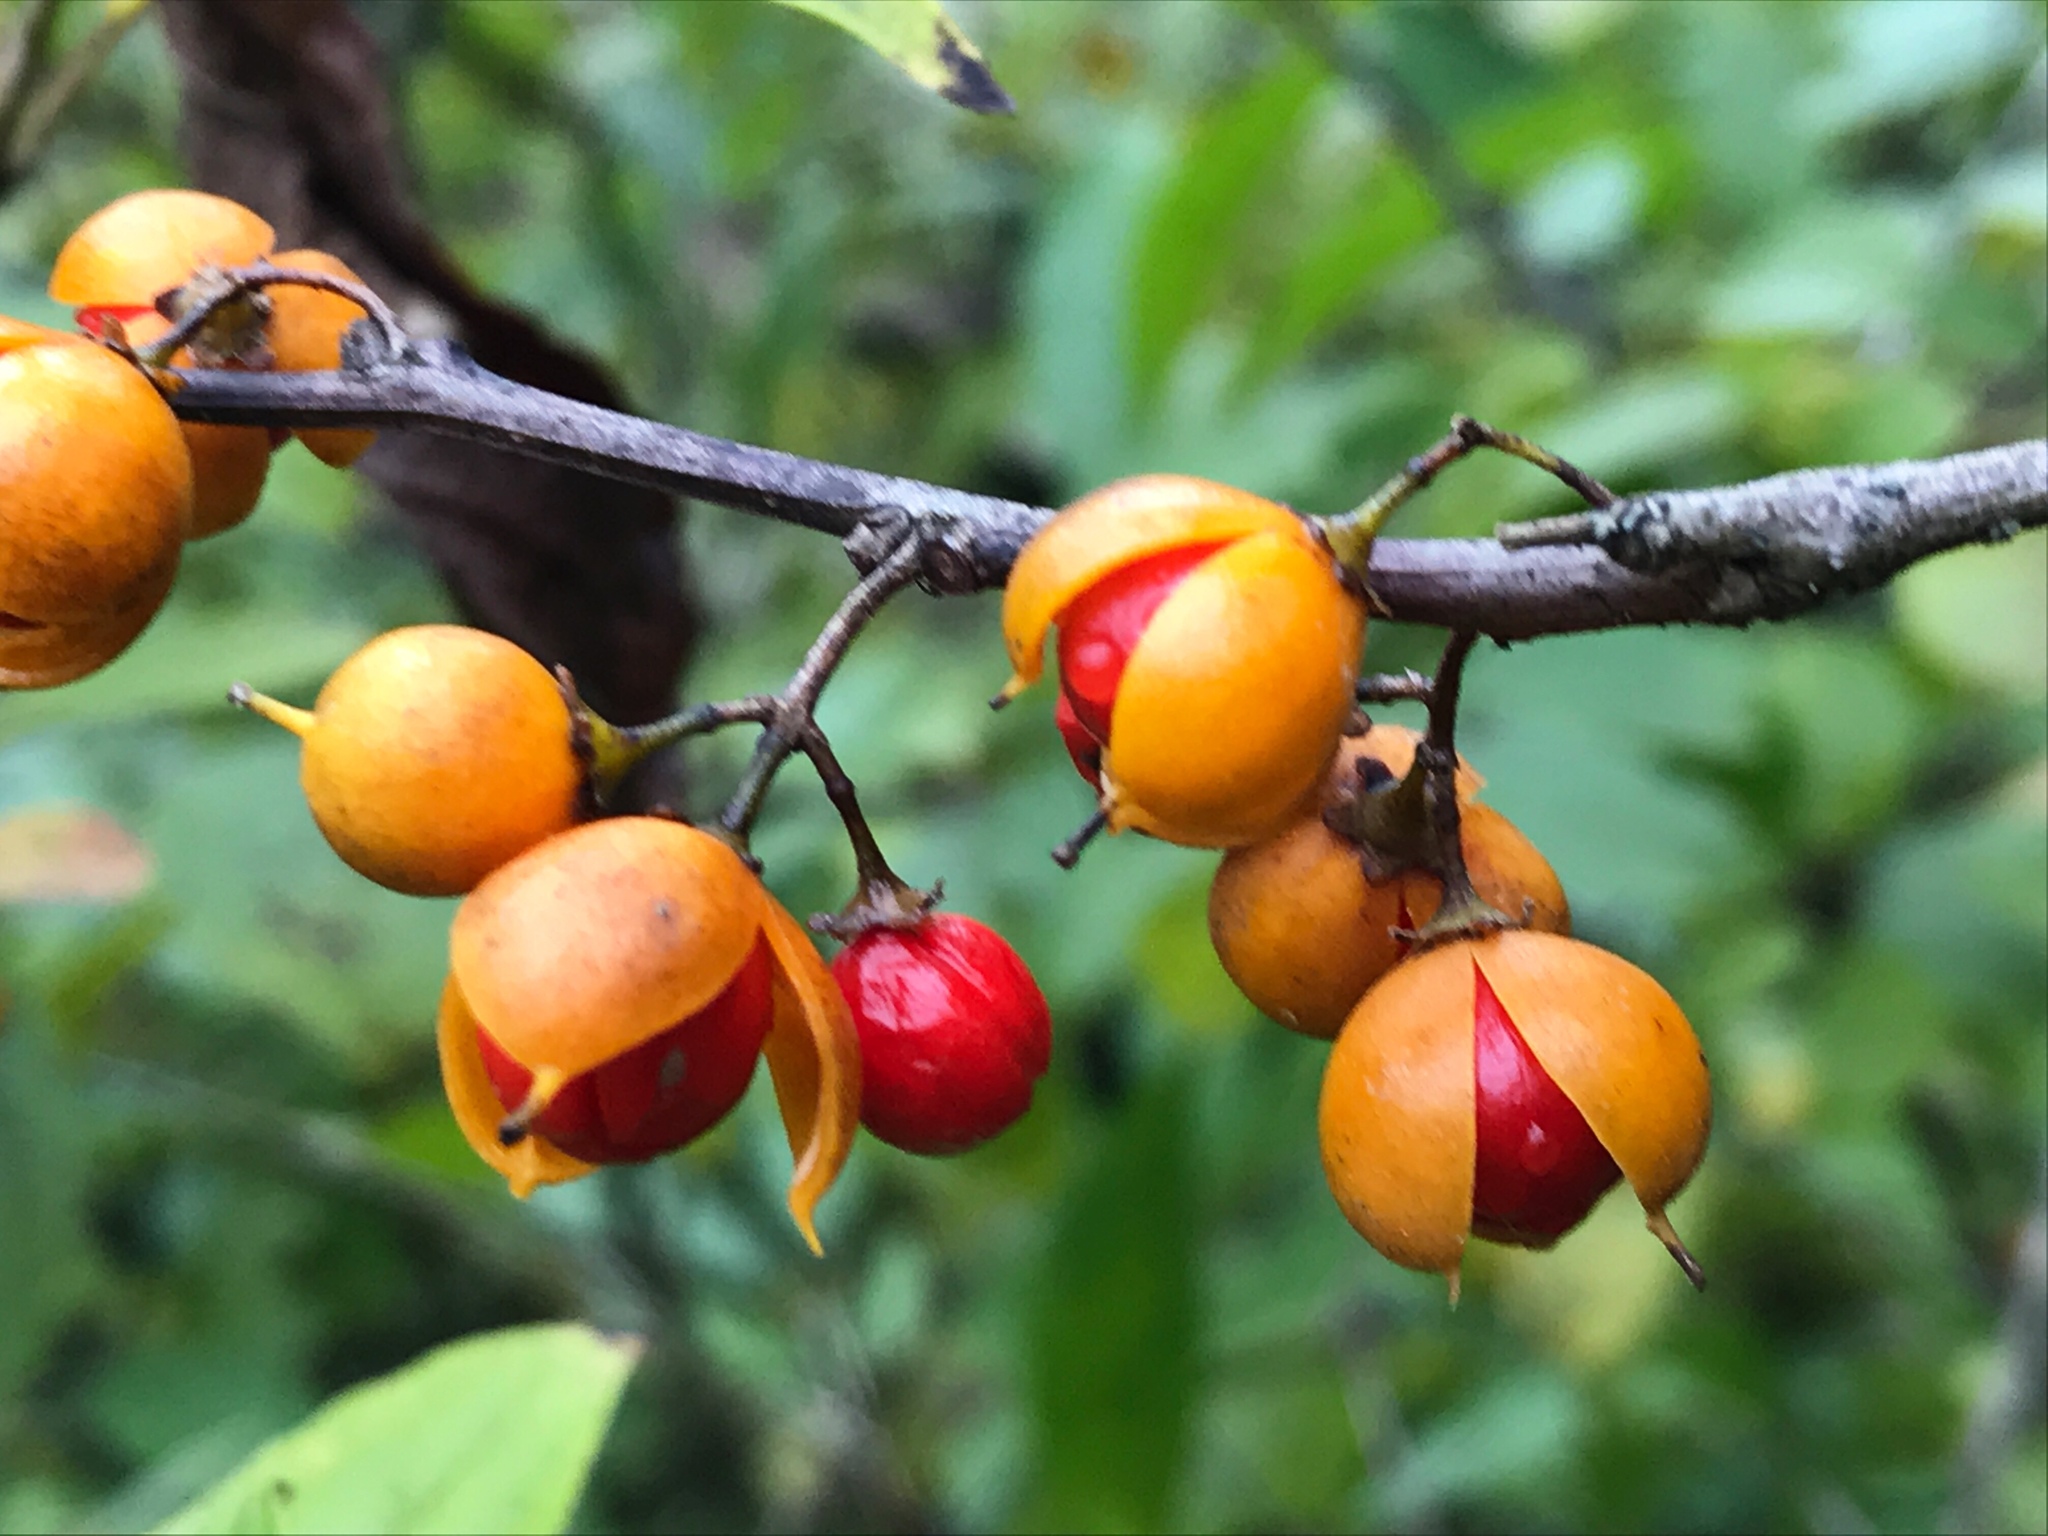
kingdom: Plantae
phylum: Tracheophyta
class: Magnoliopsida
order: Celastrales
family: Celastraceae
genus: Celastrus
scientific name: Celastrus orbiculatus
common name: Oriental bittersweet
